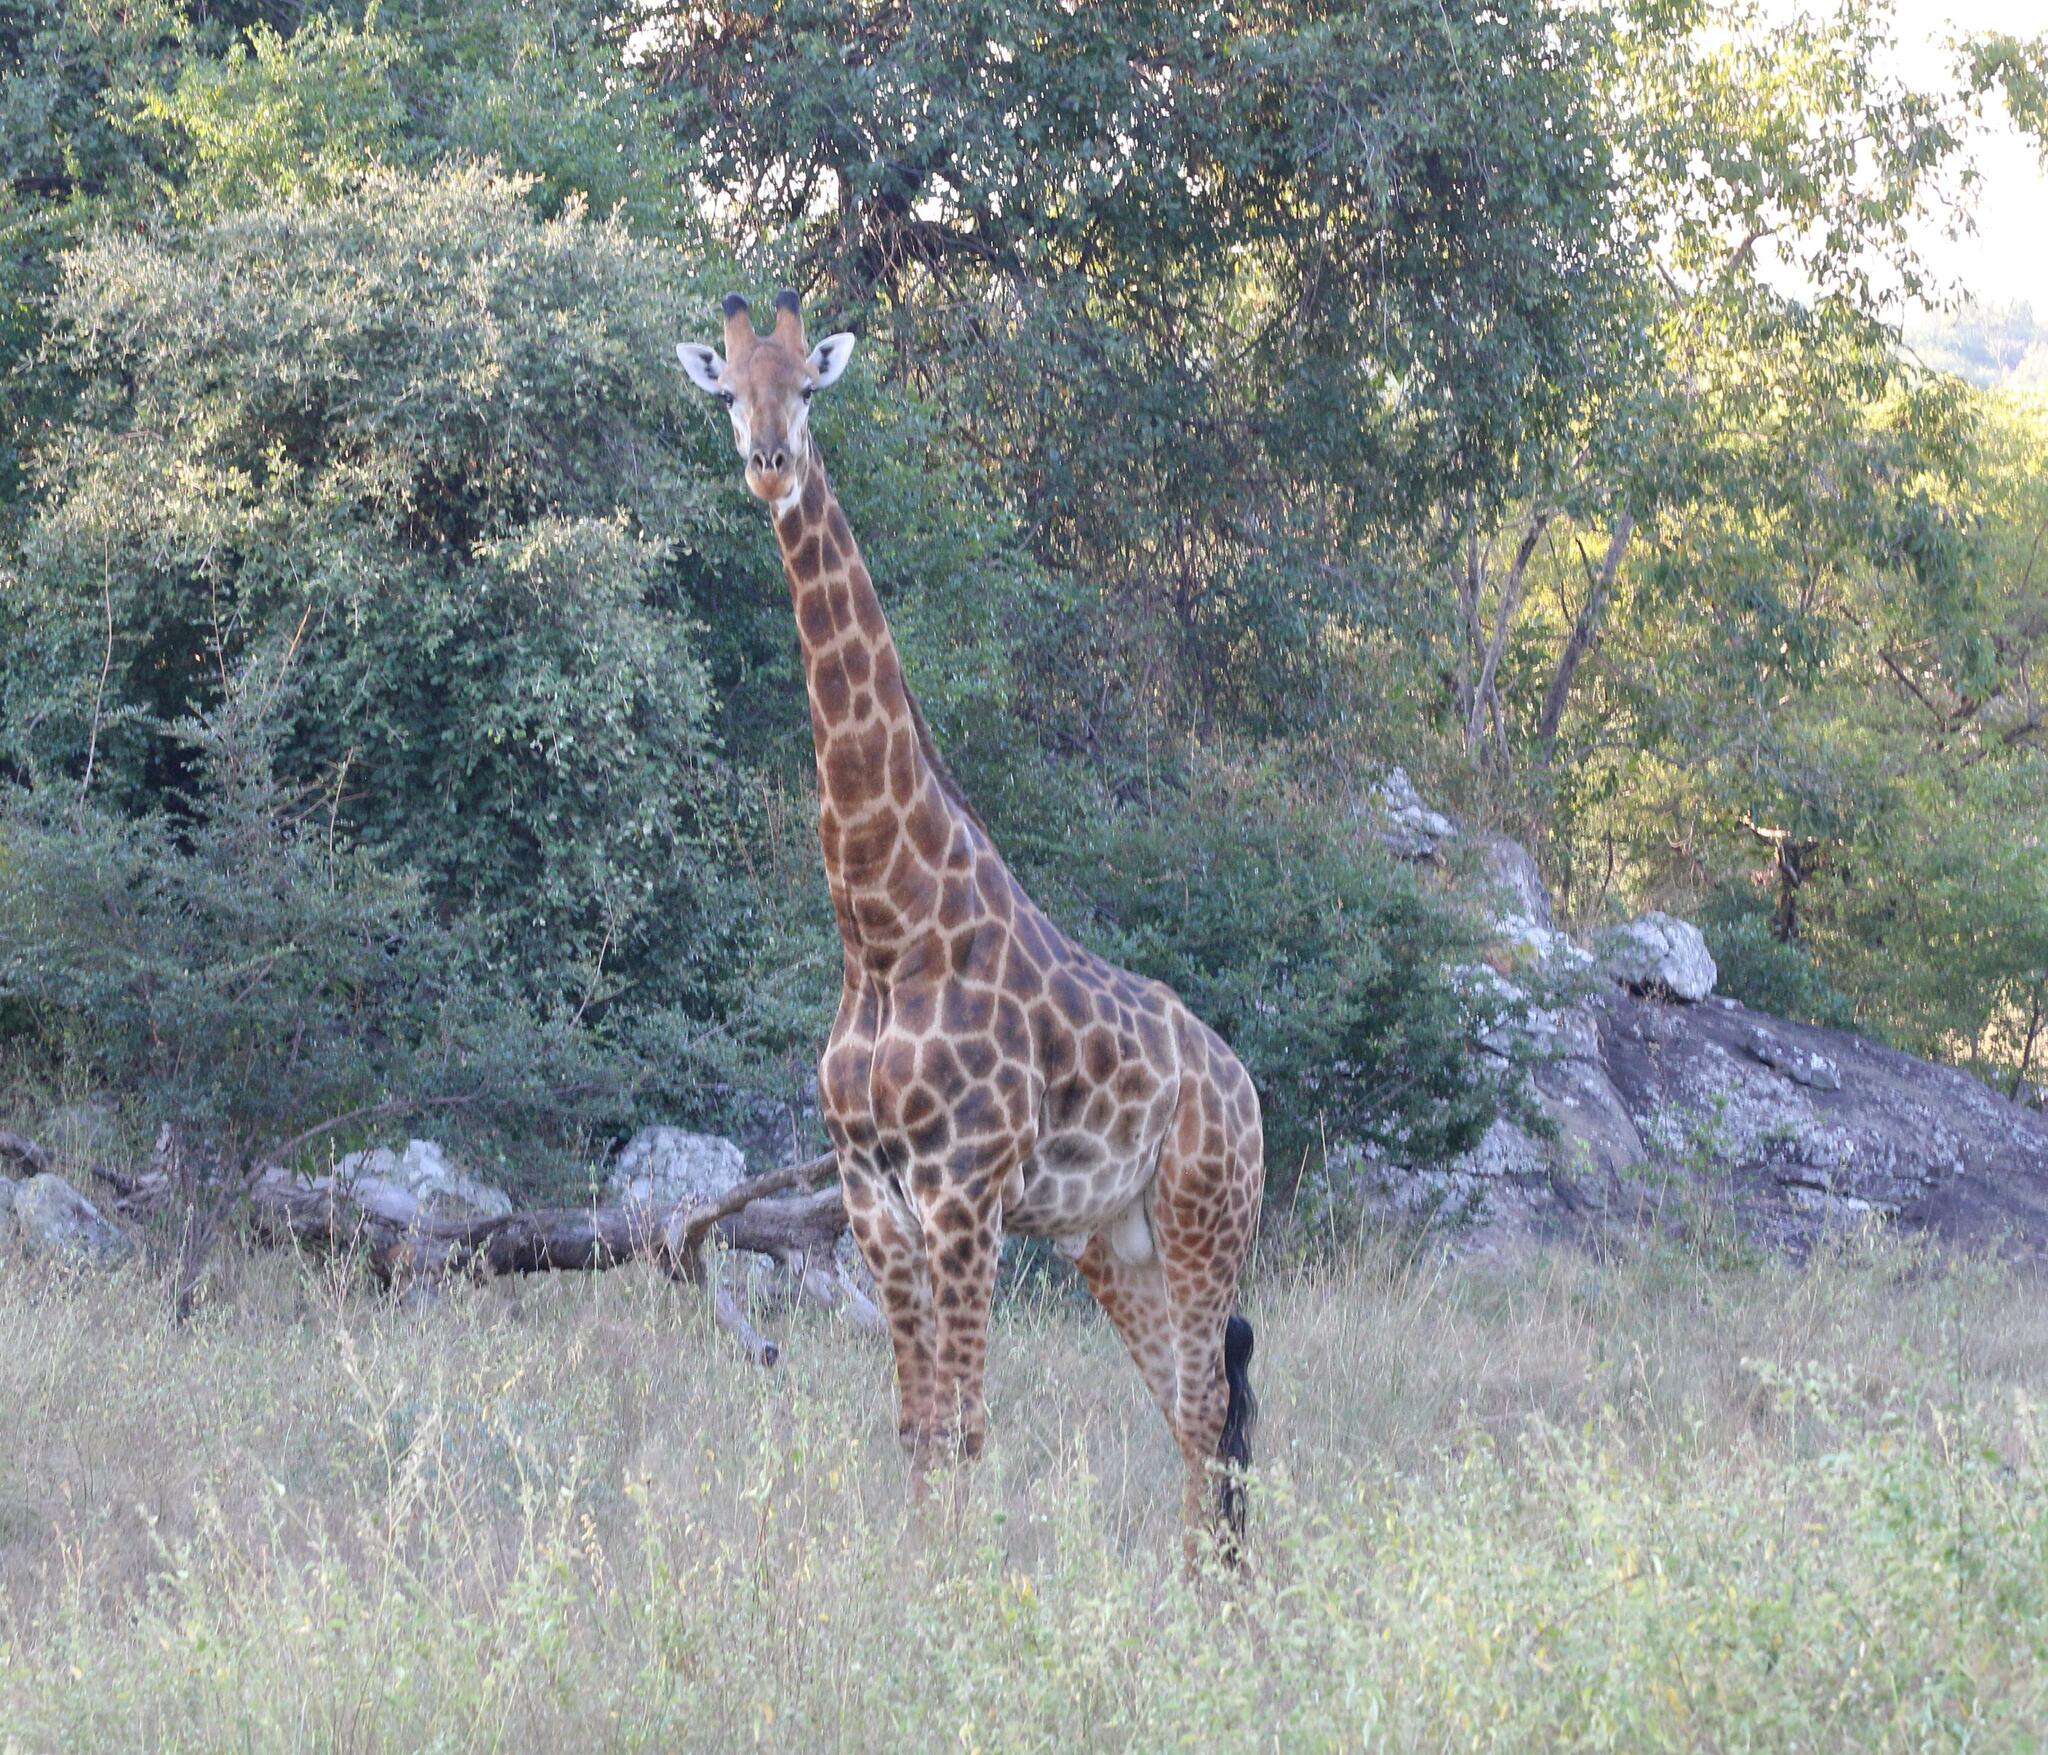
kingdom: Animalia
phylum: Chordata
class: Mammalia
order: Artiodactyla
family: Giraffidae
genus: Giraffa
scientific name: Giraffa giraffa
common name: Southern giraffe
